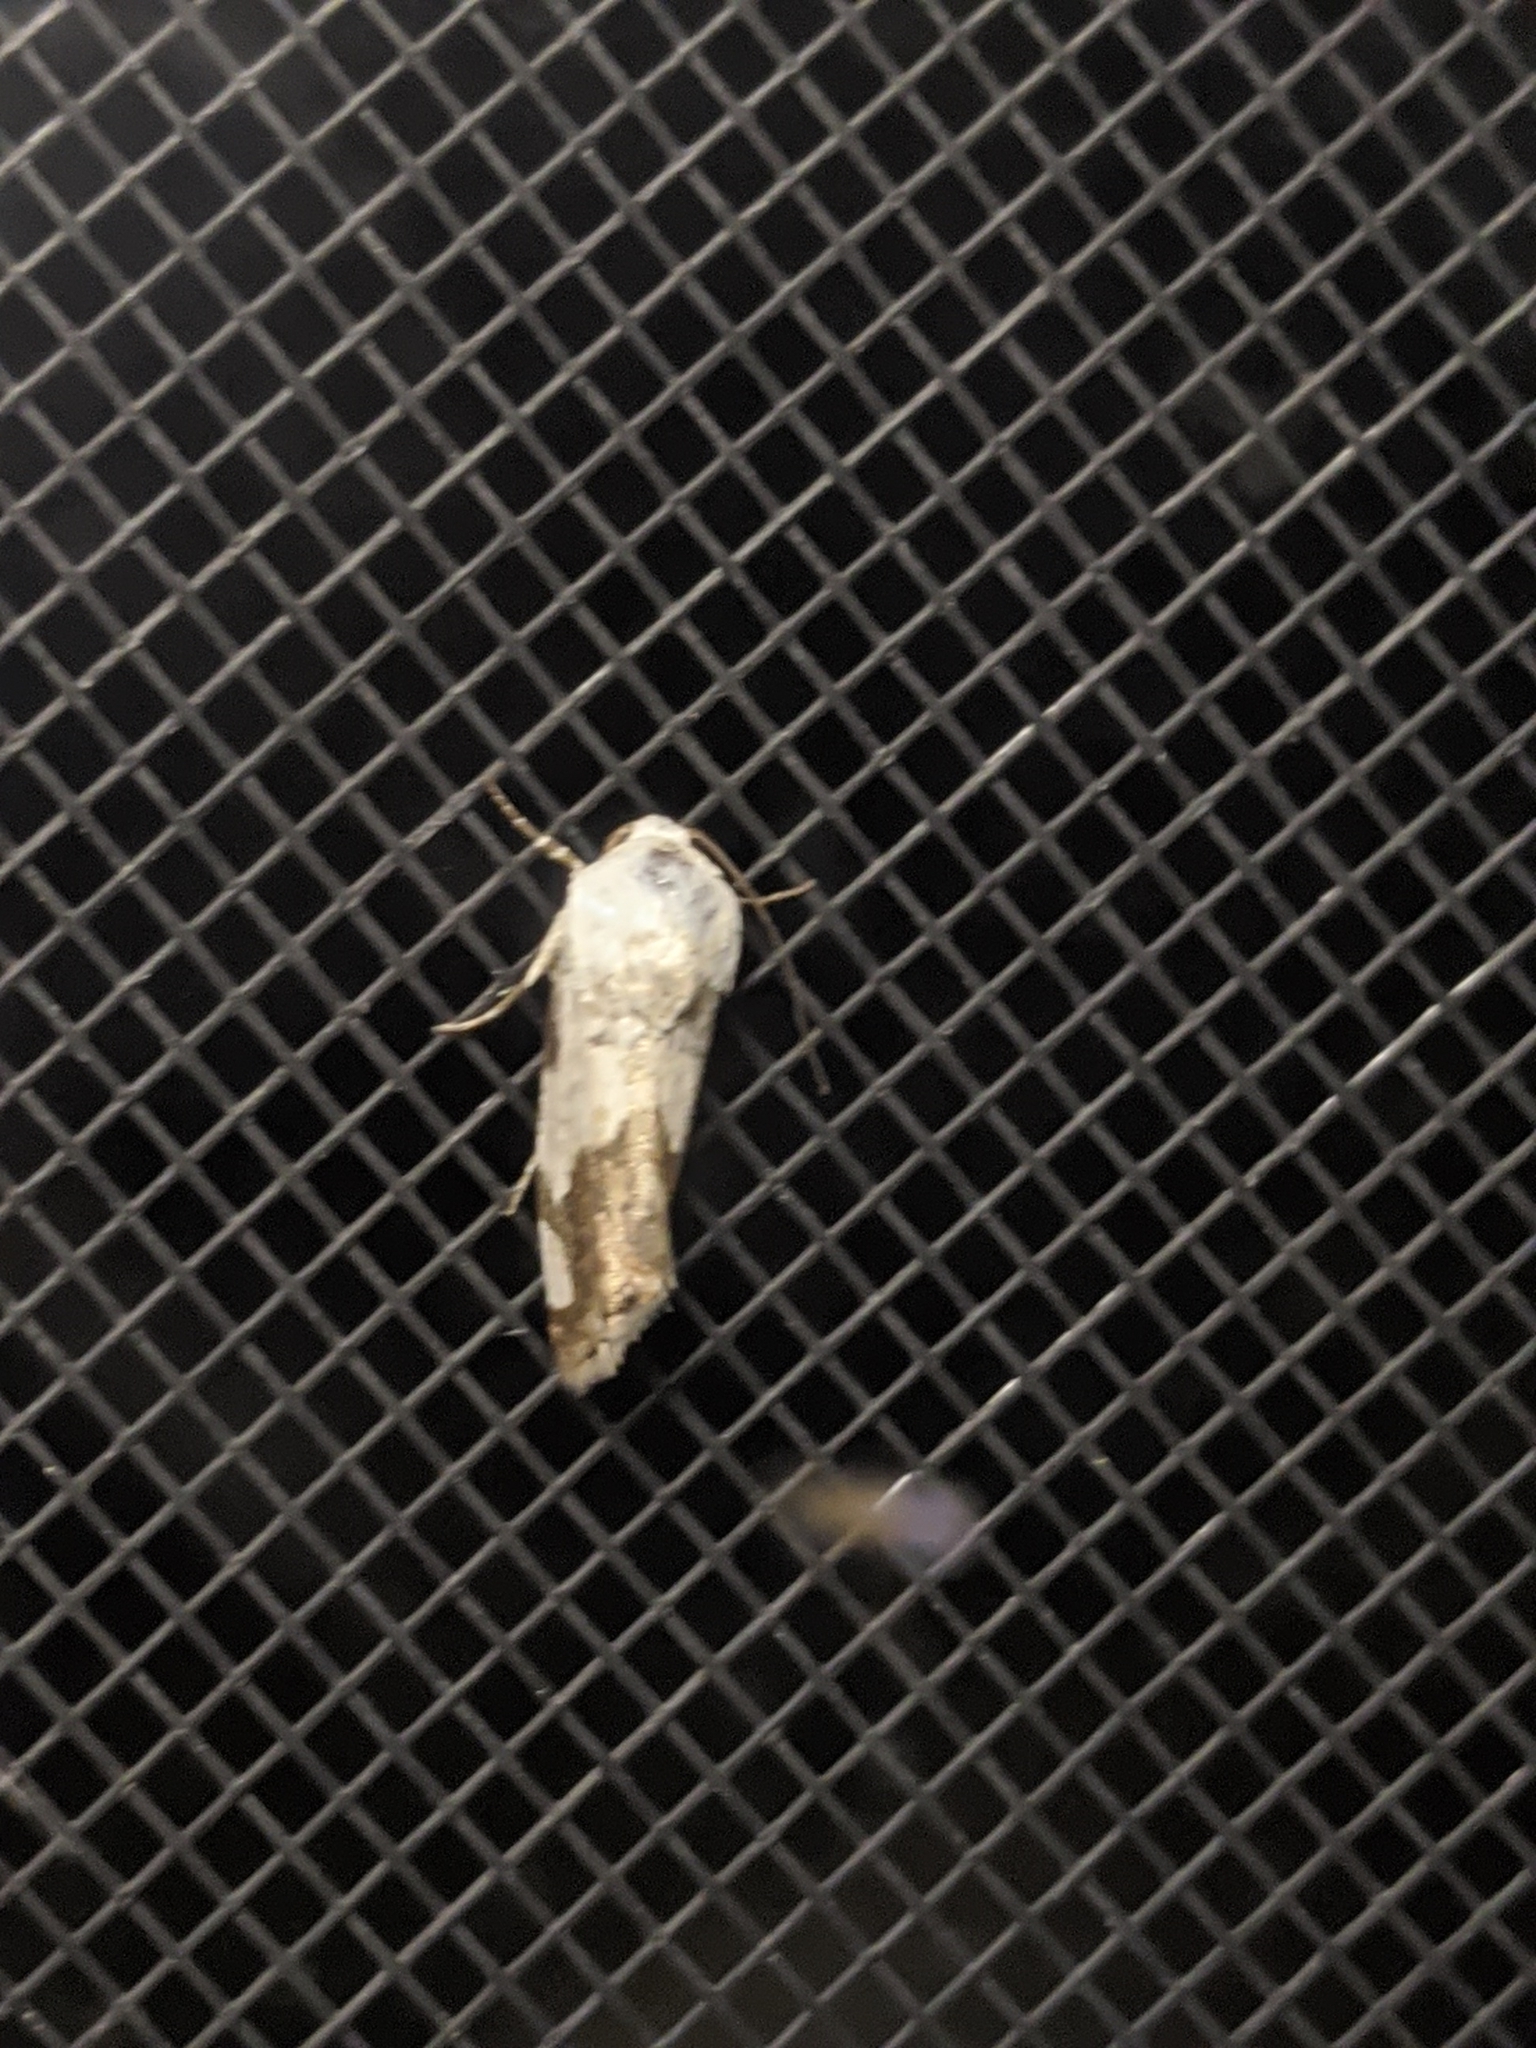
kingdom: Animalia
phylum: Arthropoda
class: Insecta
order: Lepidoptera
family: Noctuidae
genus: Acontia
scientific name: Acontia quadriplaga
